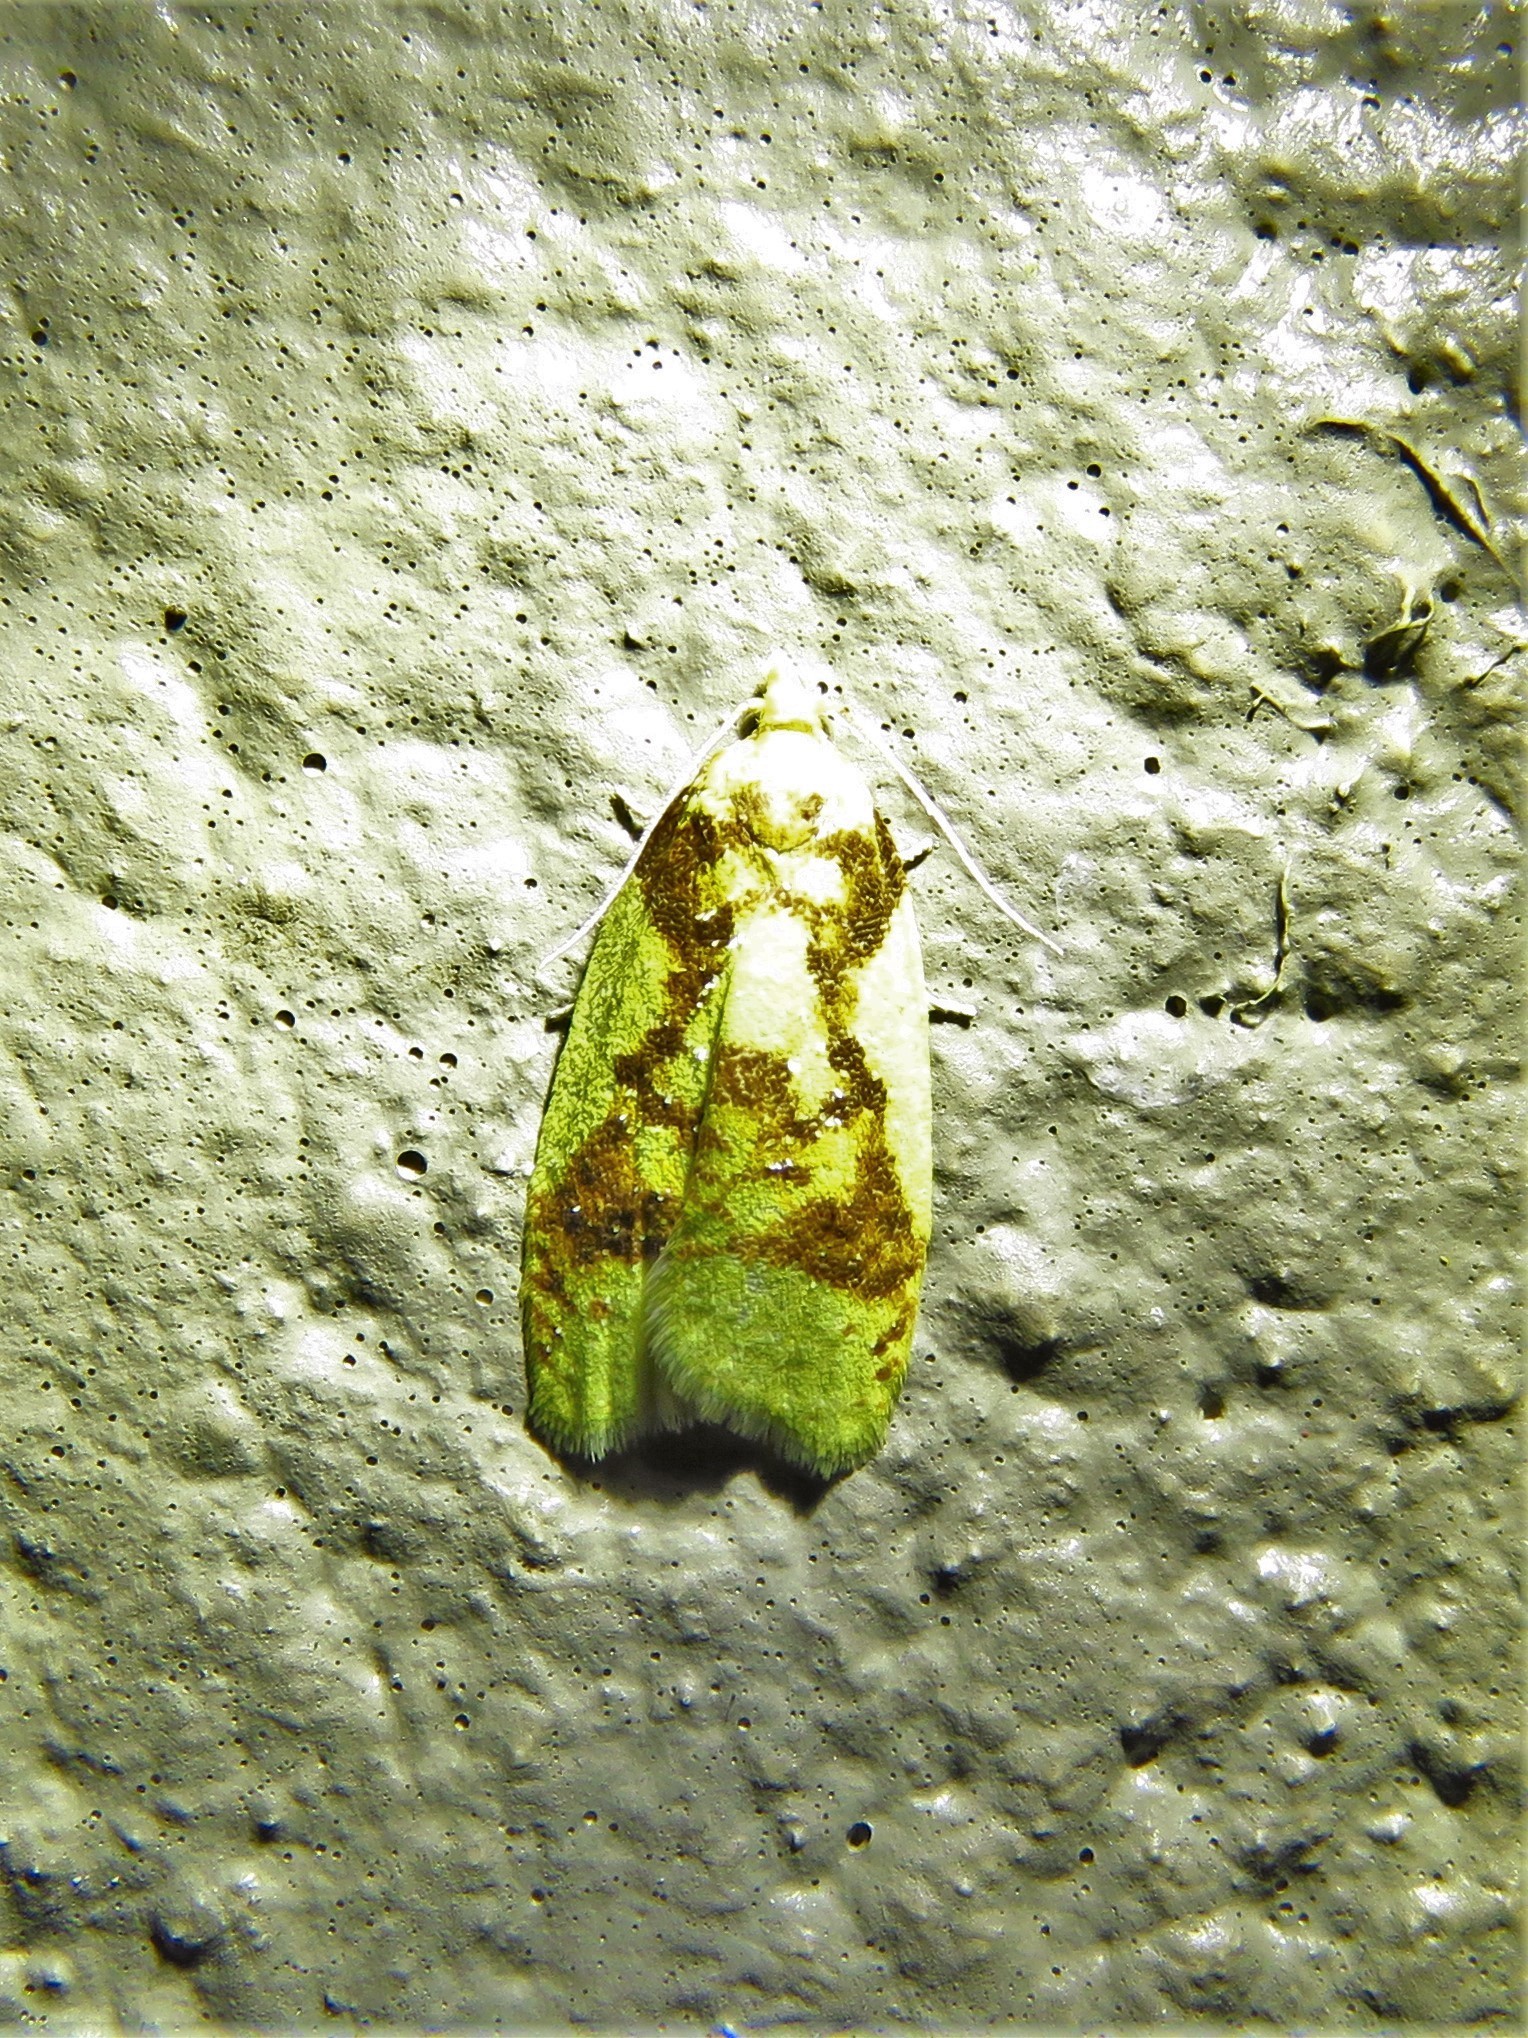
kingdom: Animalia
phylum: Arthropoda
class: Insecta
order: Lepidoptera
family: Tortricidae
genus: Sparganothis
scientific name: Sparganothis pulcherrimana
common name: Beautiful sparganothis
